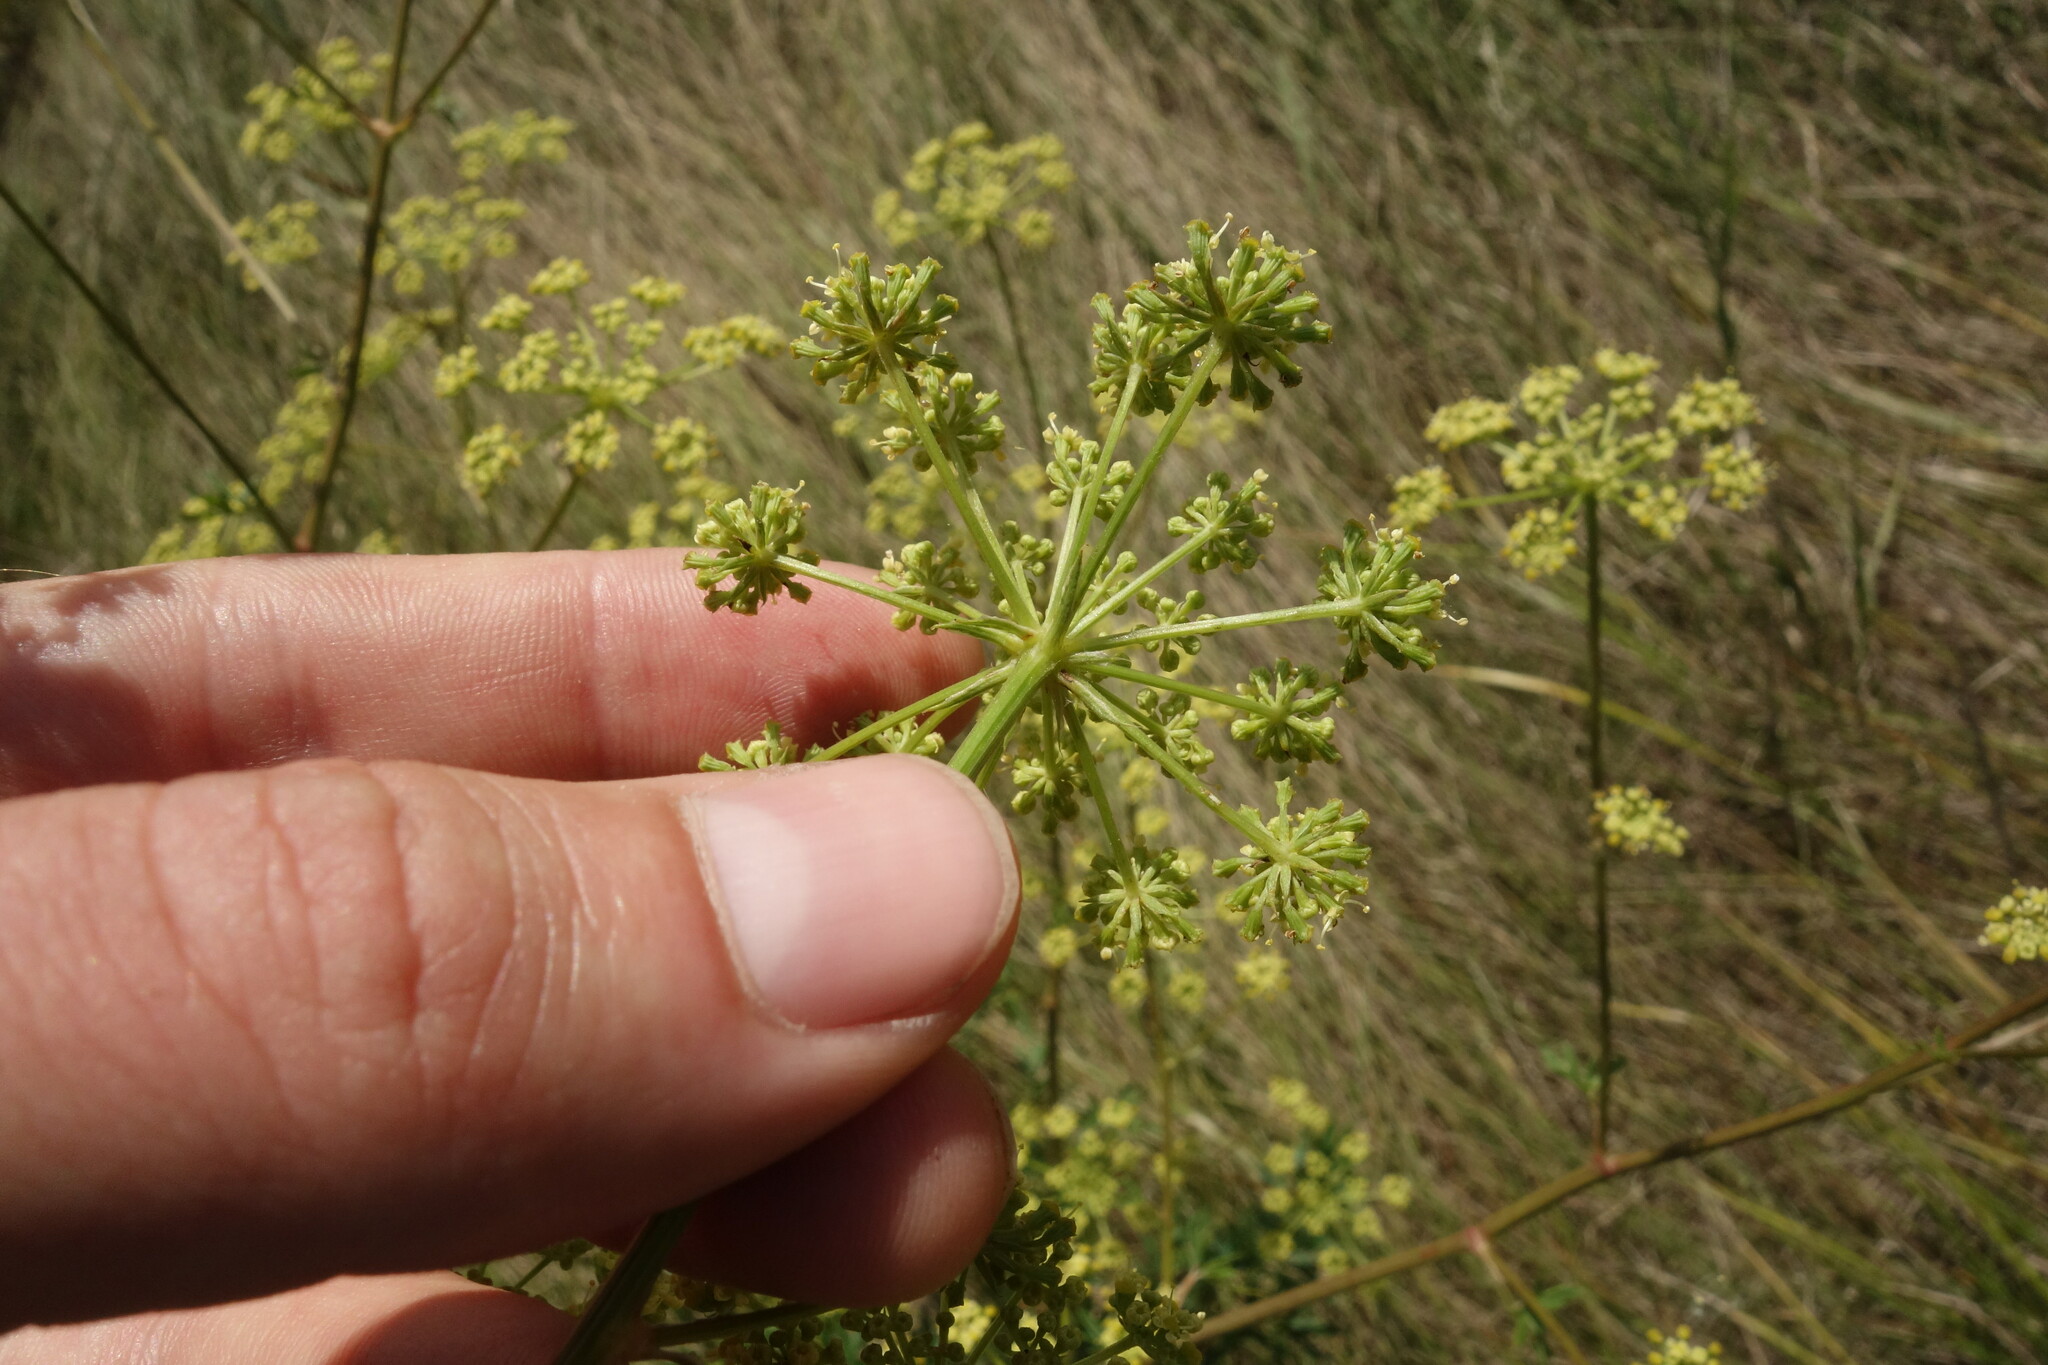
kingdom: Plantae
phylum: Tracheophyta
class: Magnoliopsida
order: Apiales
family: Apiaceae
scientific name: Apiaceae
